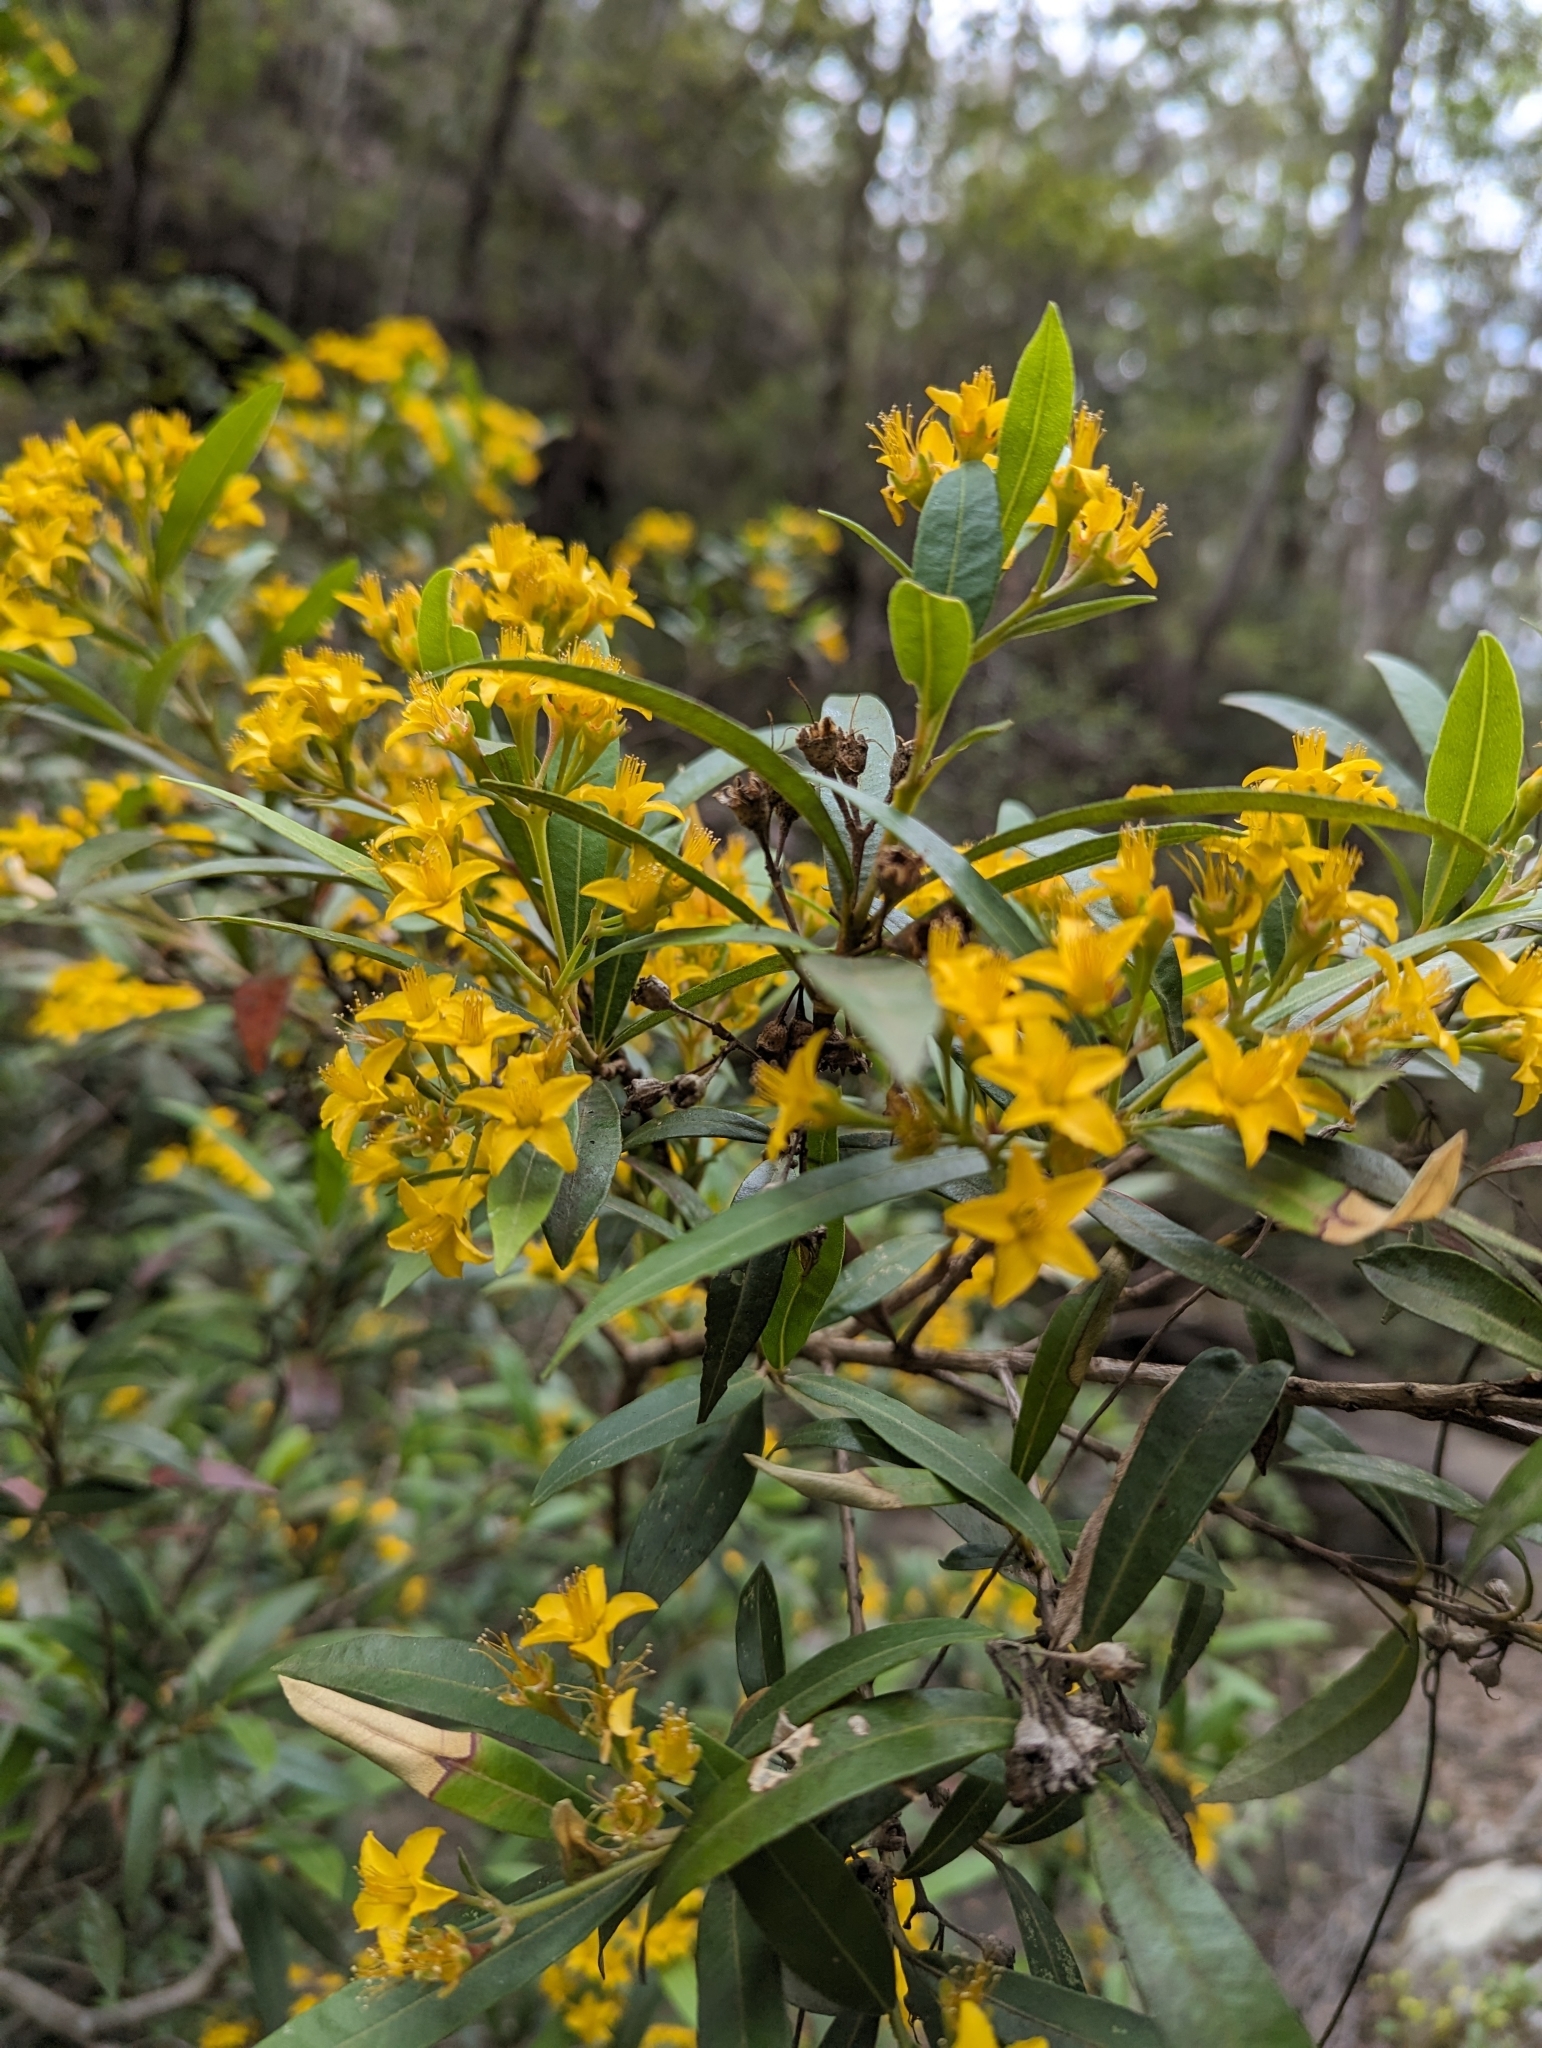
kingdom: Plantae
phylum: Tracheophyta
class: Magnoliopsida
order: Myrtales
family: Myrtaceae
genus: Tristania
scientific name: Tristania neriifolia
